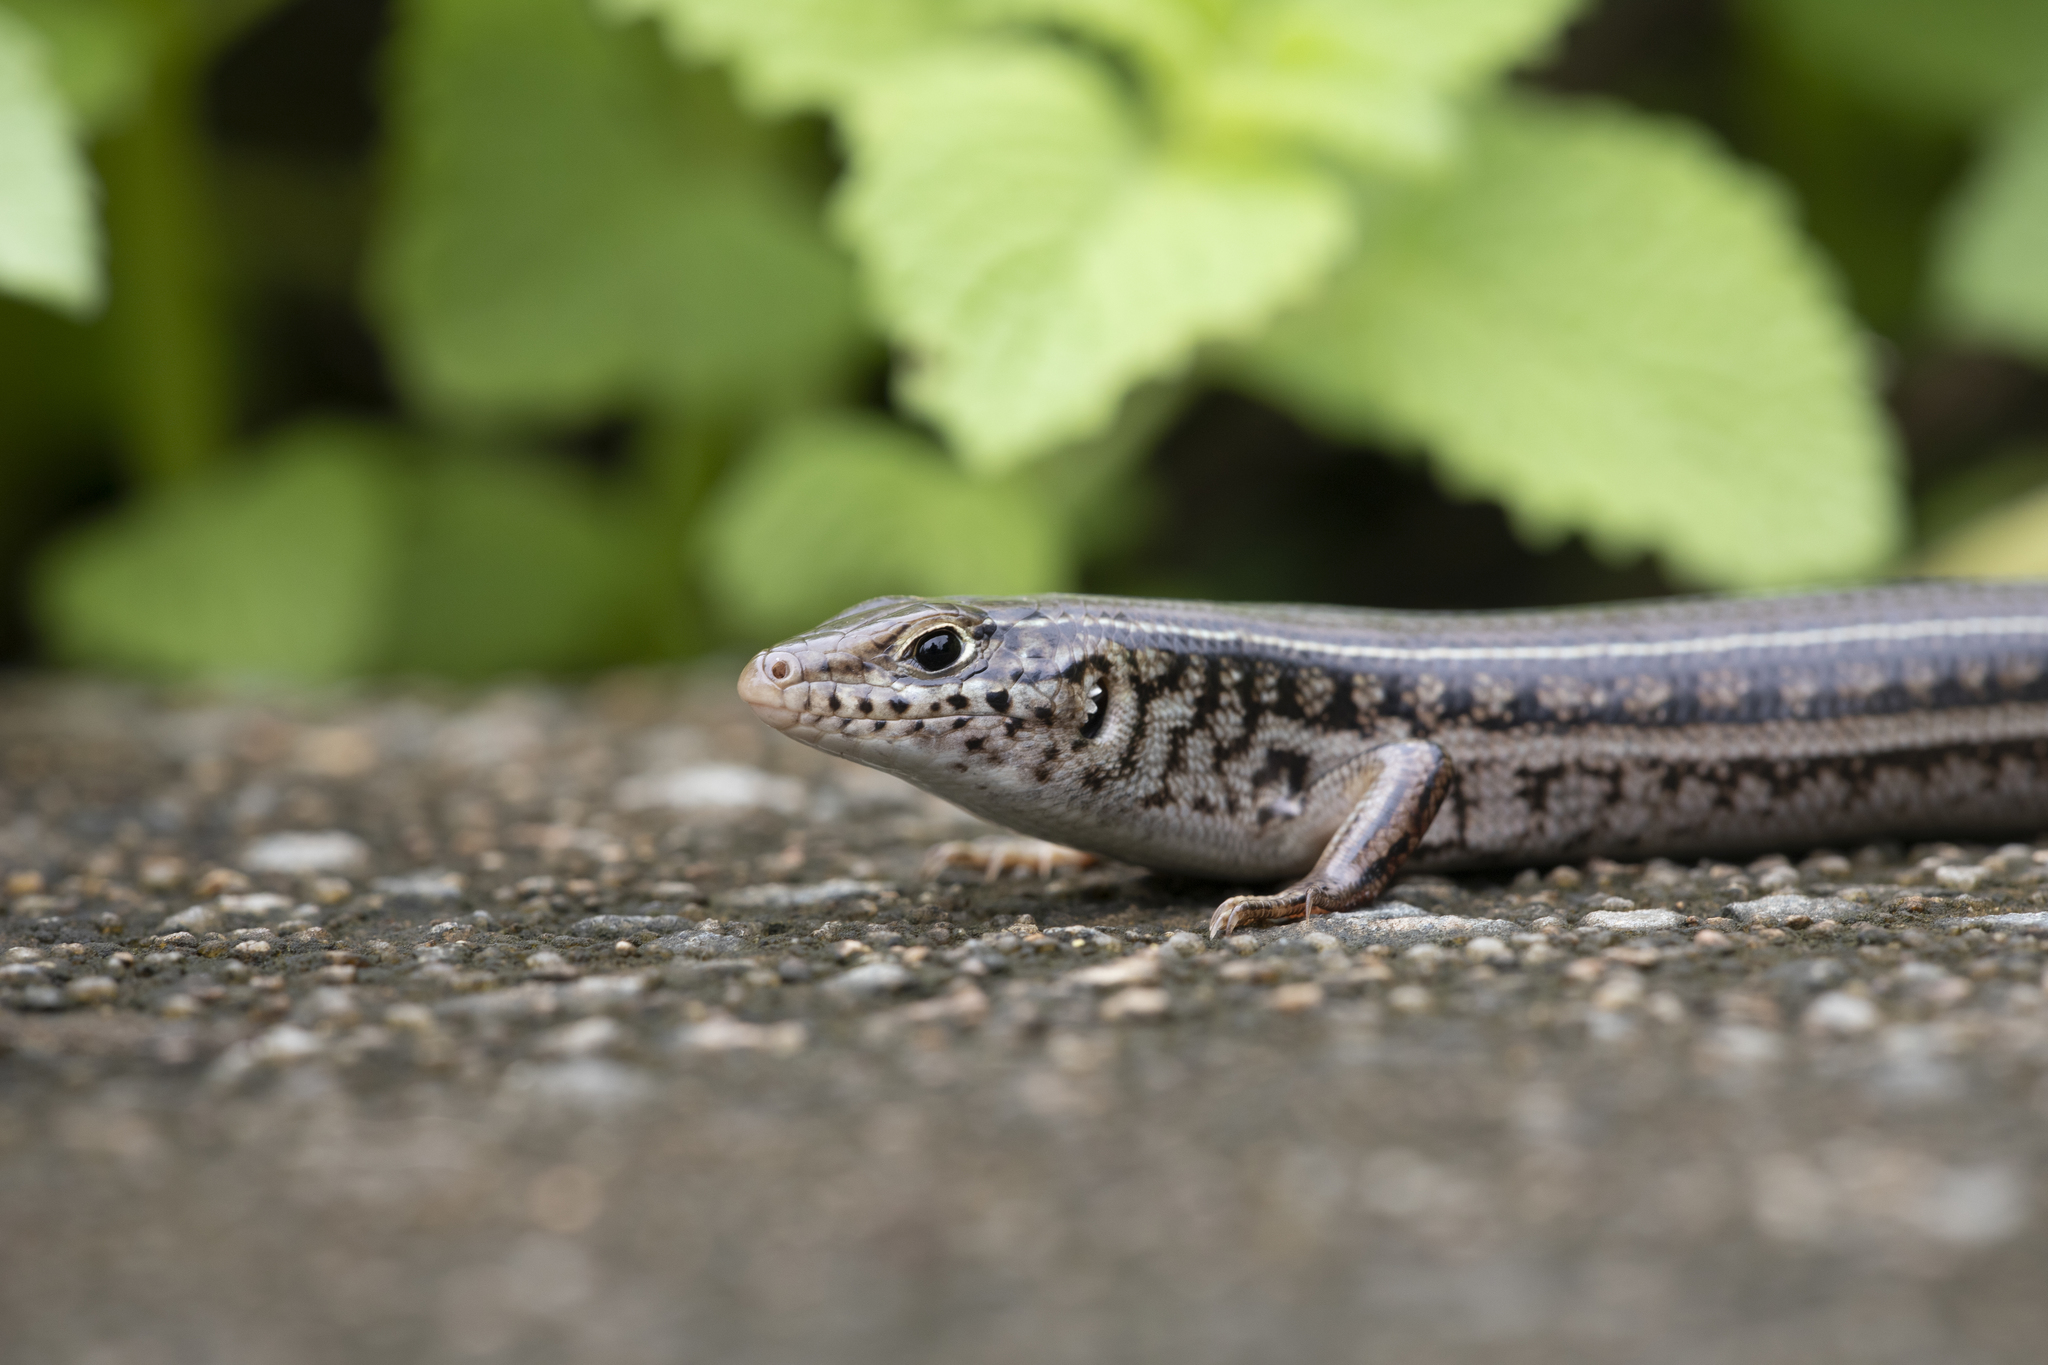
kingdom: Animalia
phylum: Chordata
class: Squamata
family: Scincidae
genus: Ctenotus
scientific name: Ctenotus robustus
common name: Robust ctenotus
